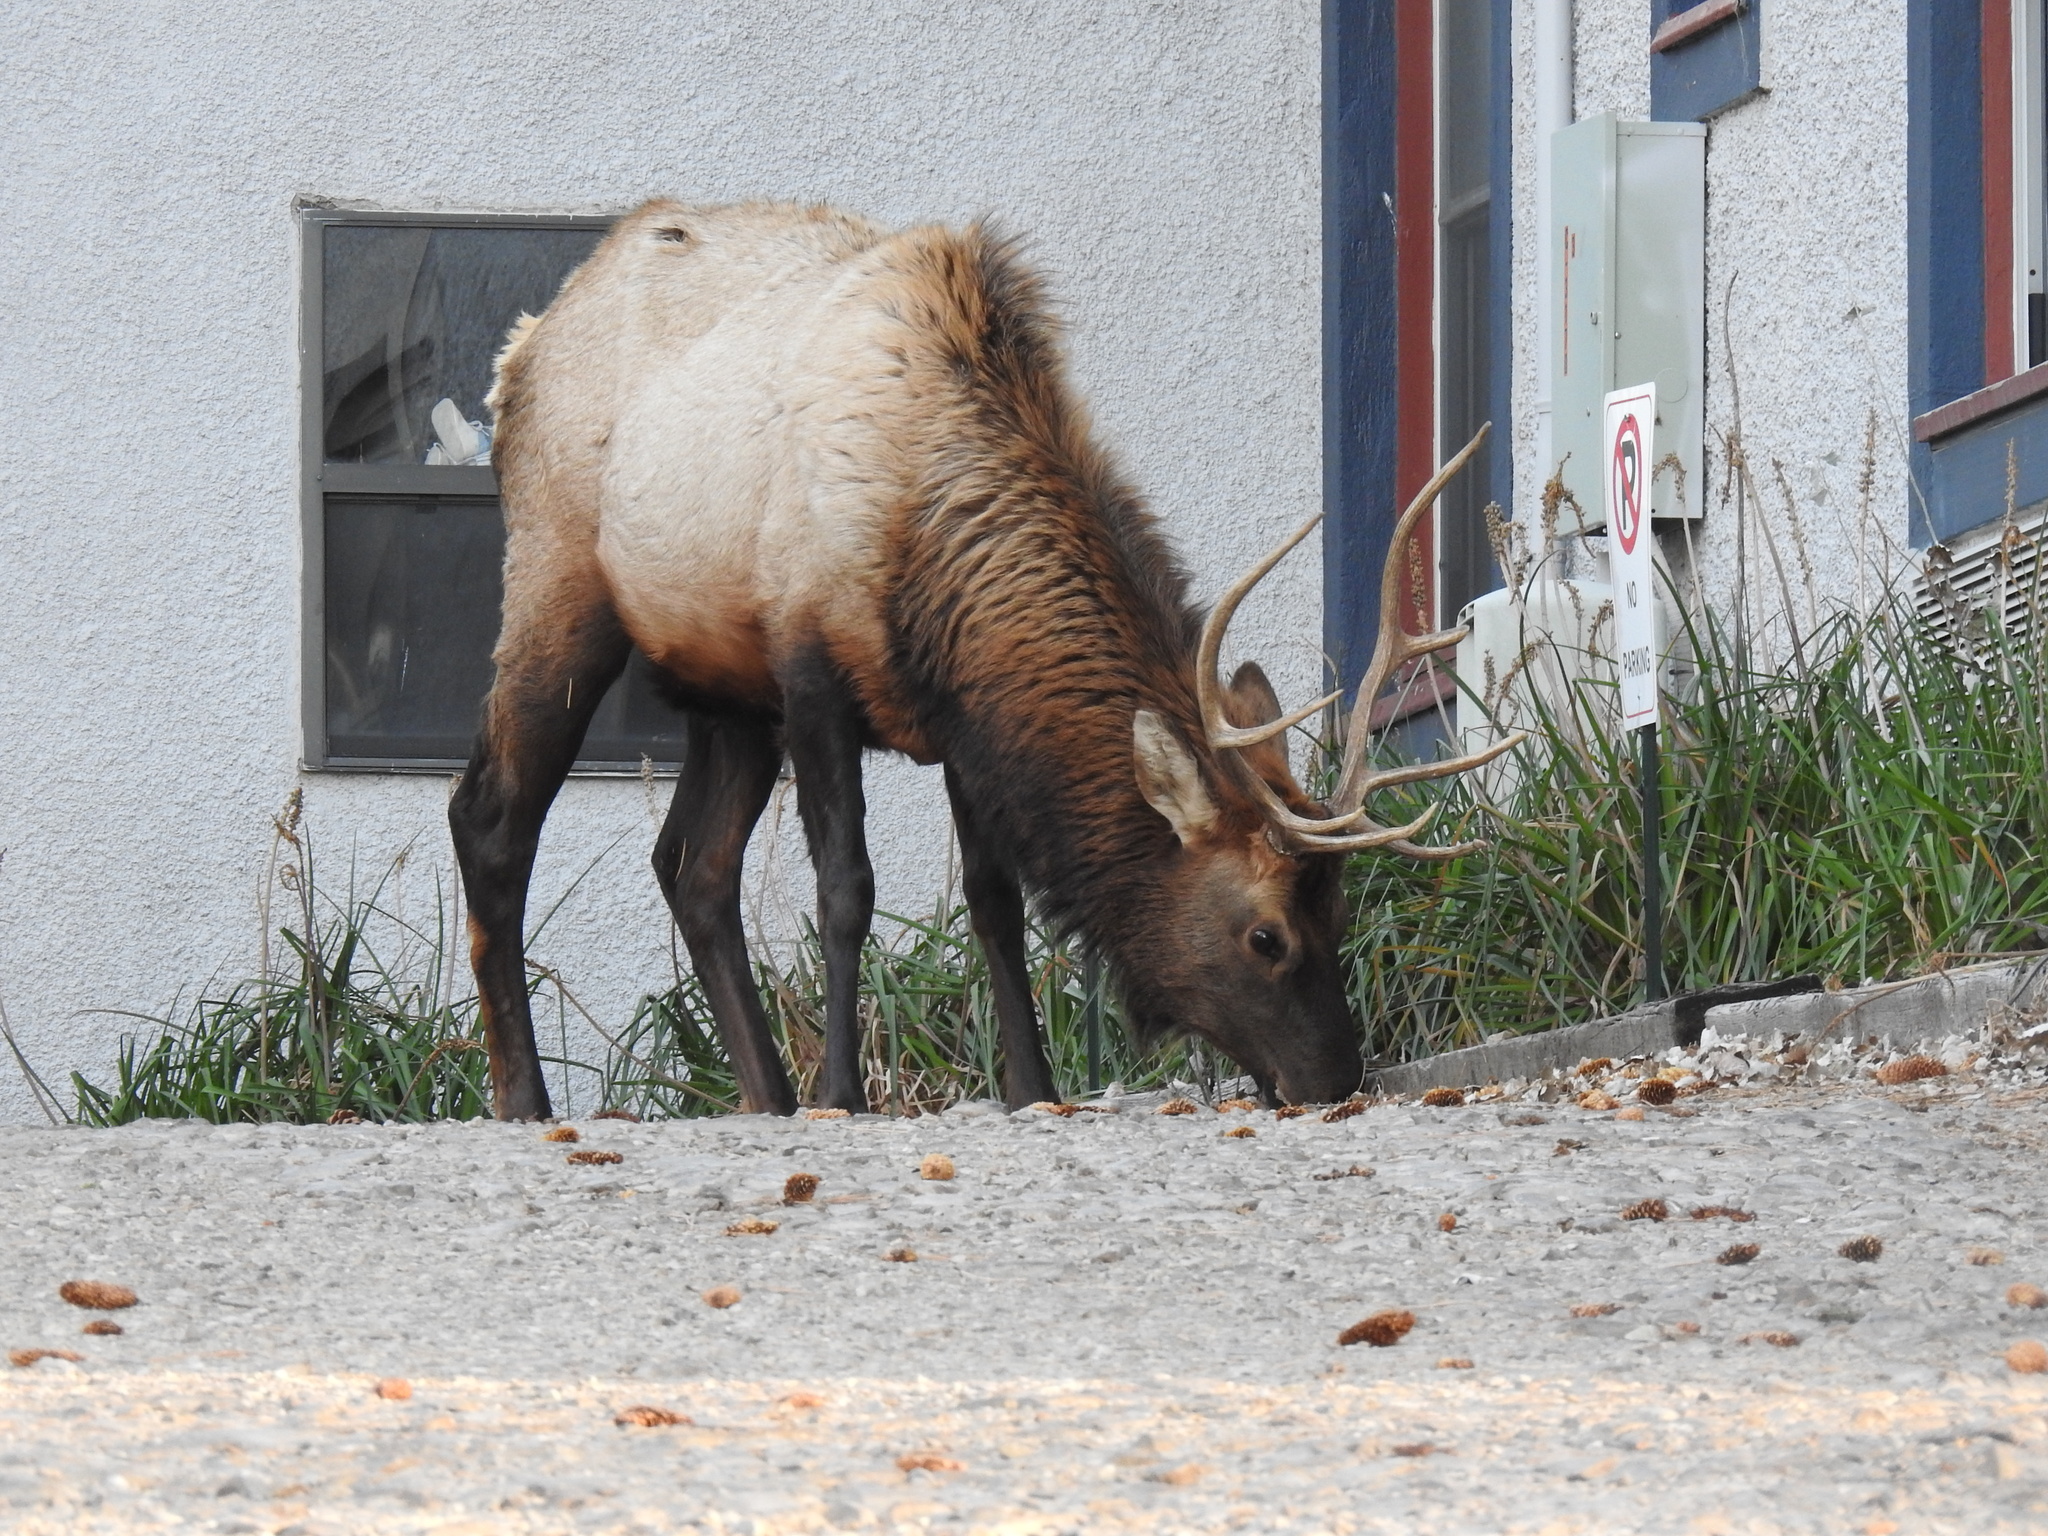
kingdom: Animalia
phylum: Chordata
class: Mammalia
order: Artiodactyla
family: Cervidae
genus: Cervus
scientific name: Cervus elaphus
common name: Red deer
